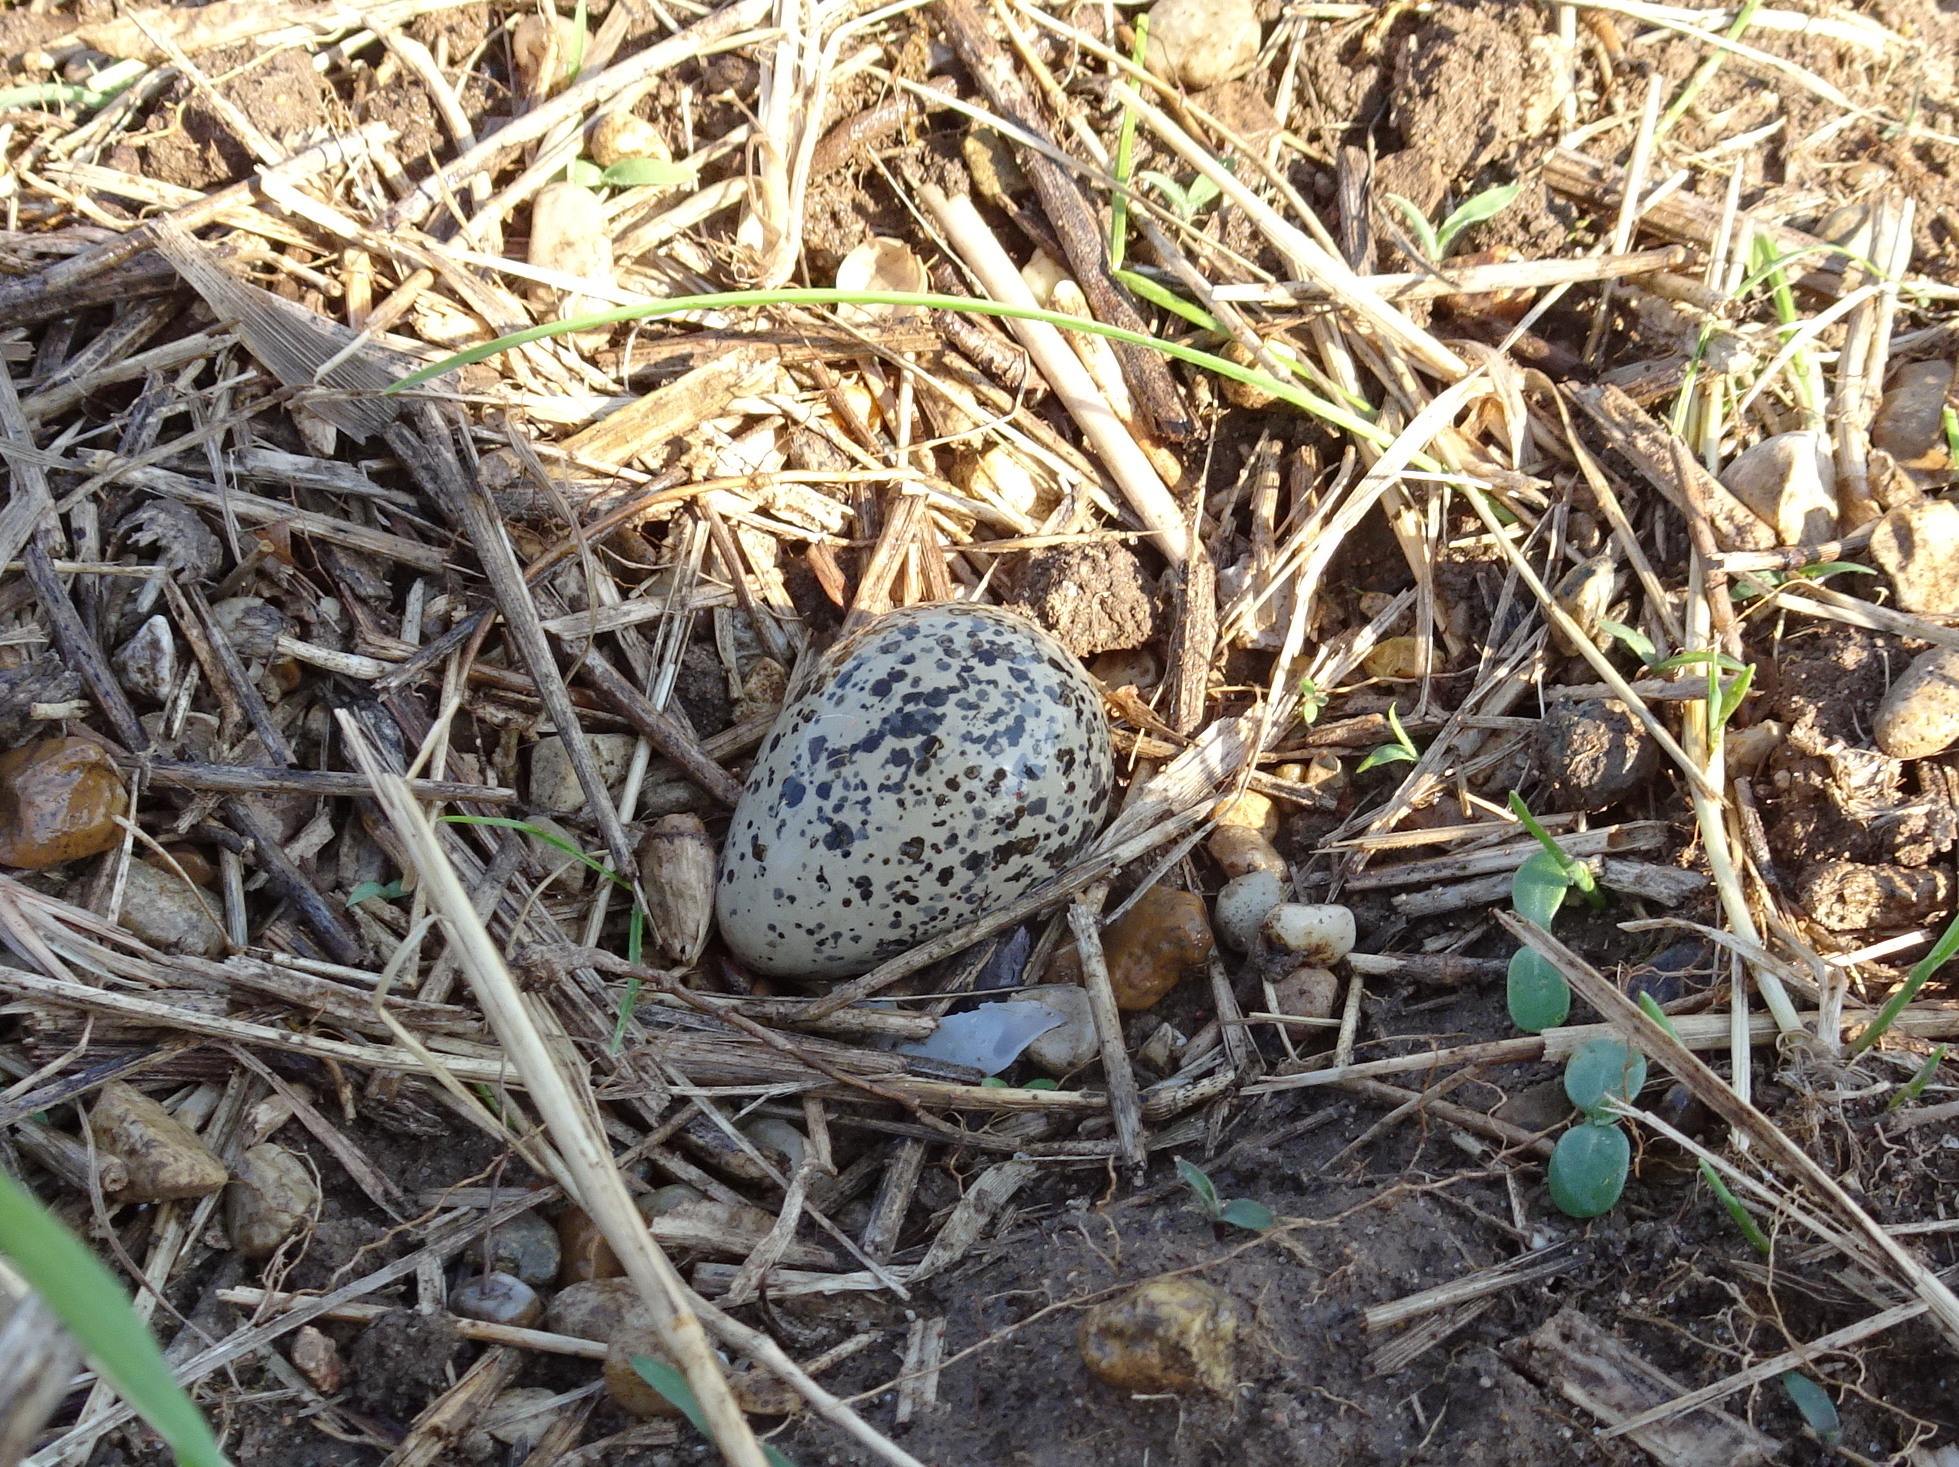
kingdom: Animalia
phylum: Chordata
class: Aves
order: Charadriiformes
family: Charadriidae
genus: Charadrius
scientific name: Charadrius vociferus
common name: Killdeer
